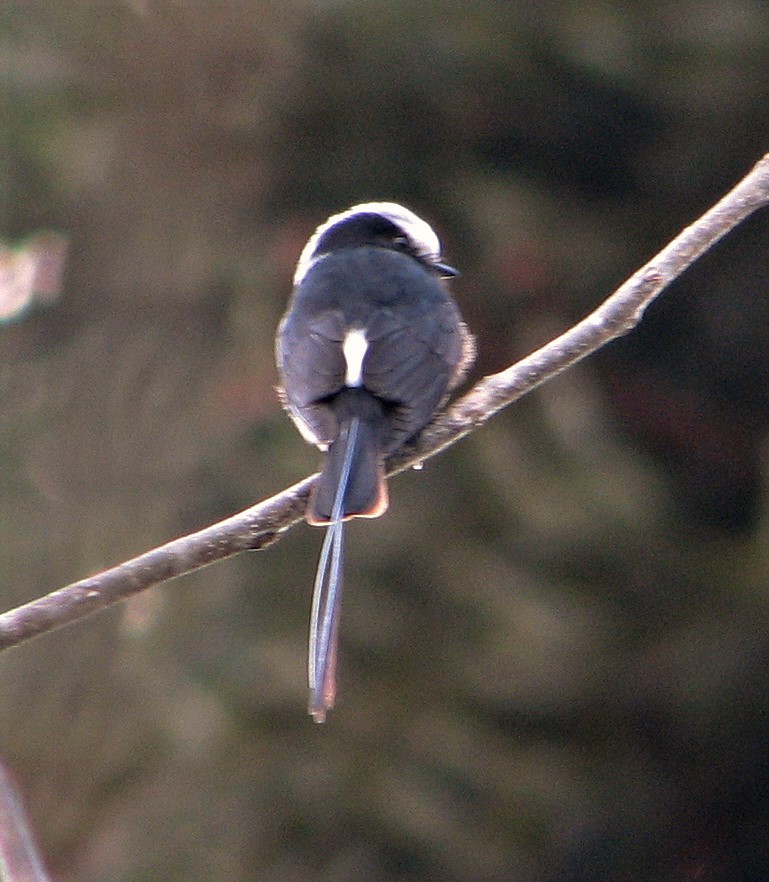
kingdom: Animalia
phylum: Chordata
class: Aves
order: Passeriformes
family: Tyrannidae
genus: Colonia
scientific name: Colonia colonus
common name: Long-tailed tyrant
